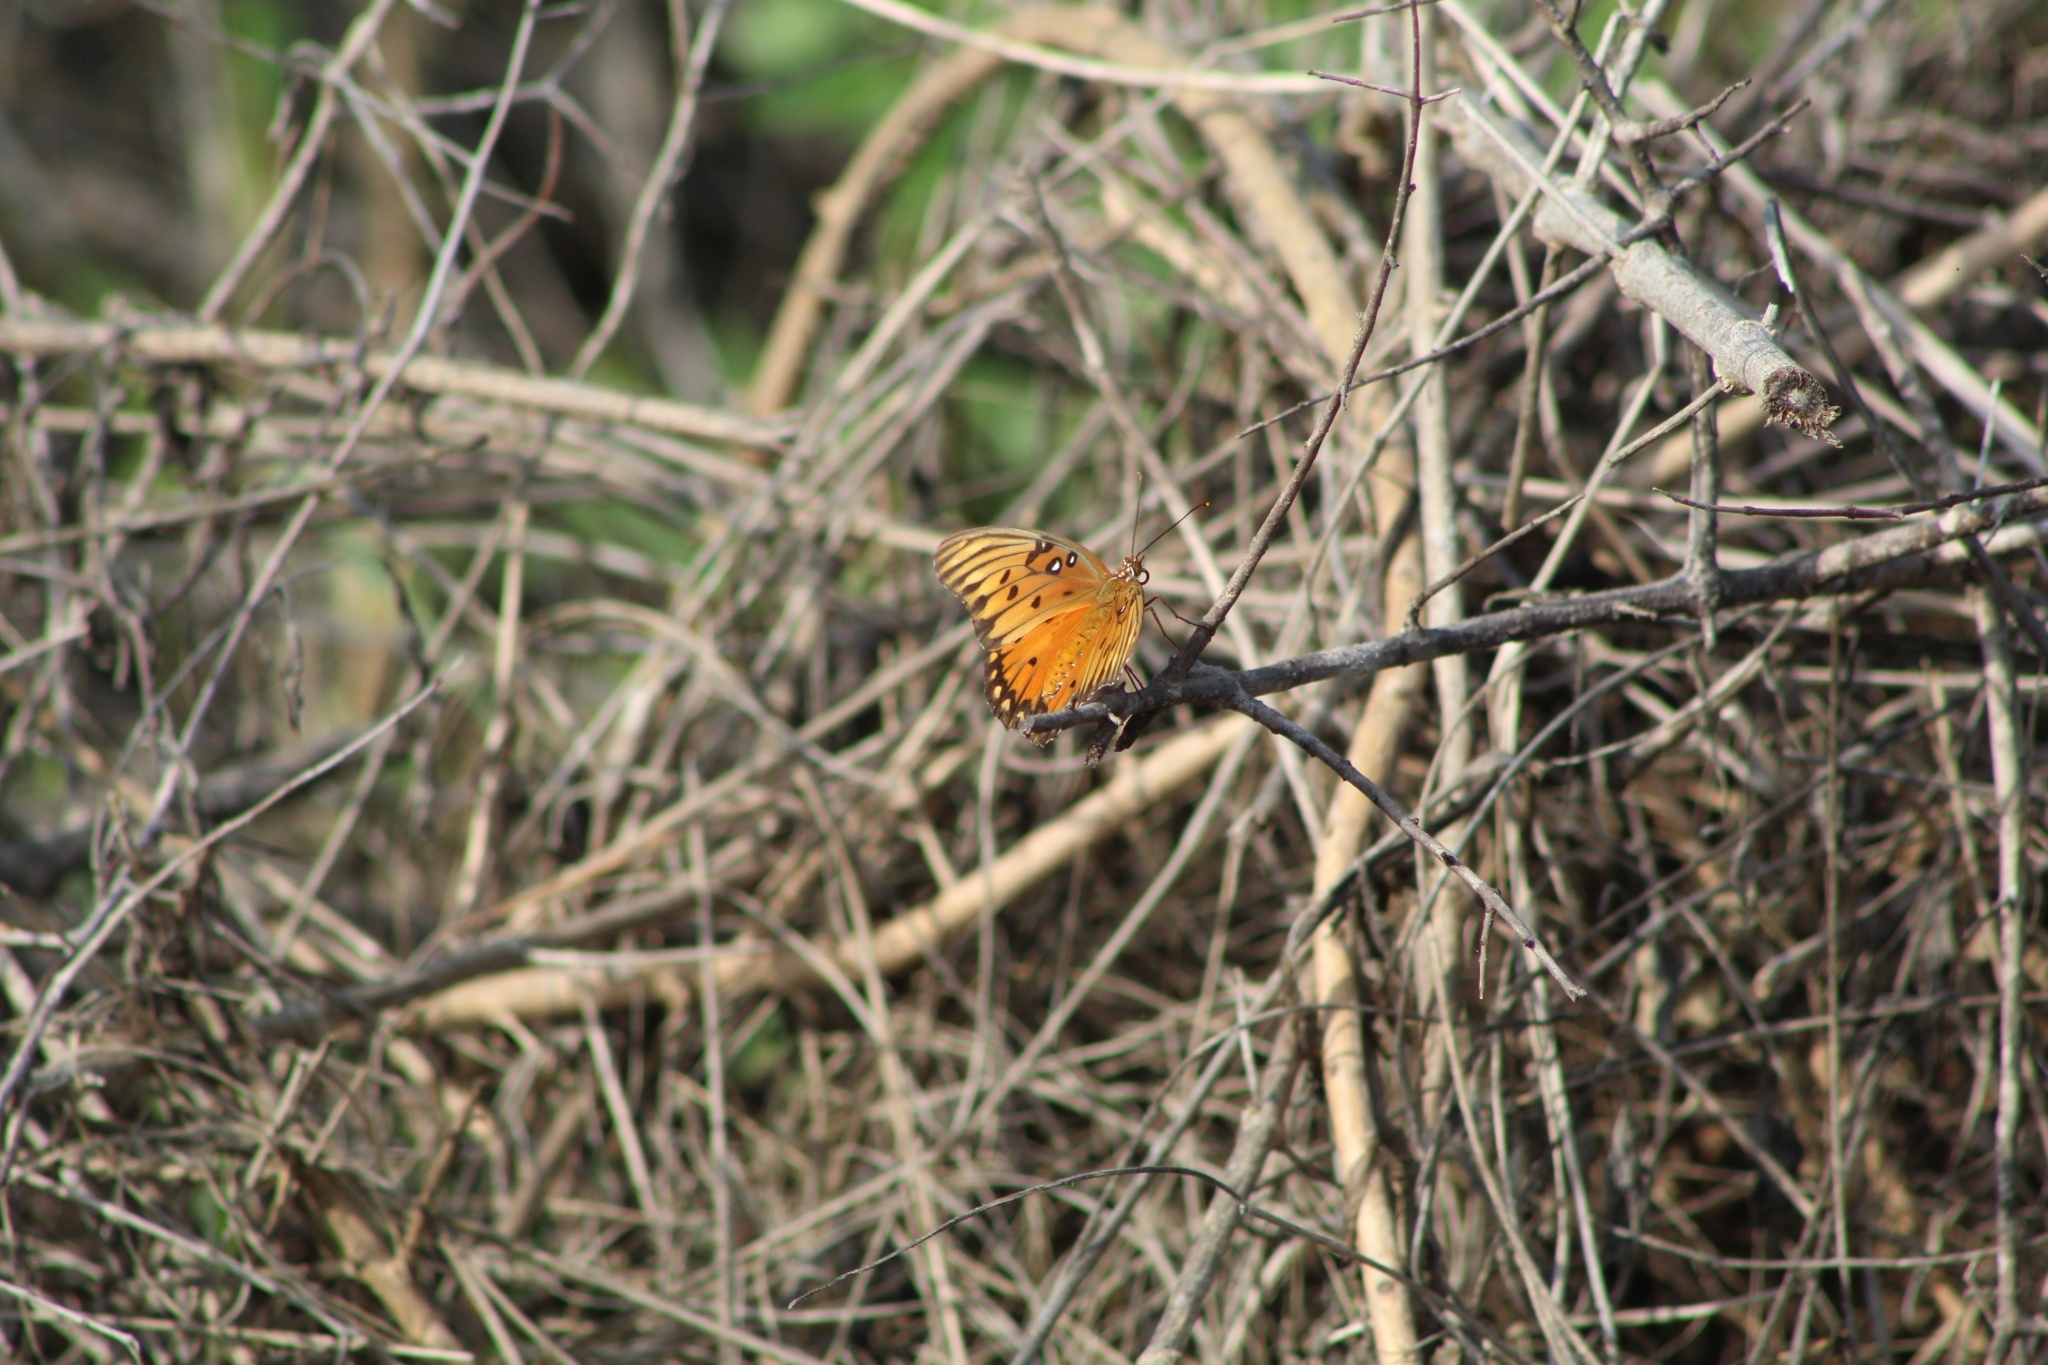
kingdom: Animalia
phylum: Arthropoda
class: Insecta
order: Lepidoptera
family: Nymphalidae
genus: Dione
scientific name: Dione vanillae
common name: Gulf fritillary
